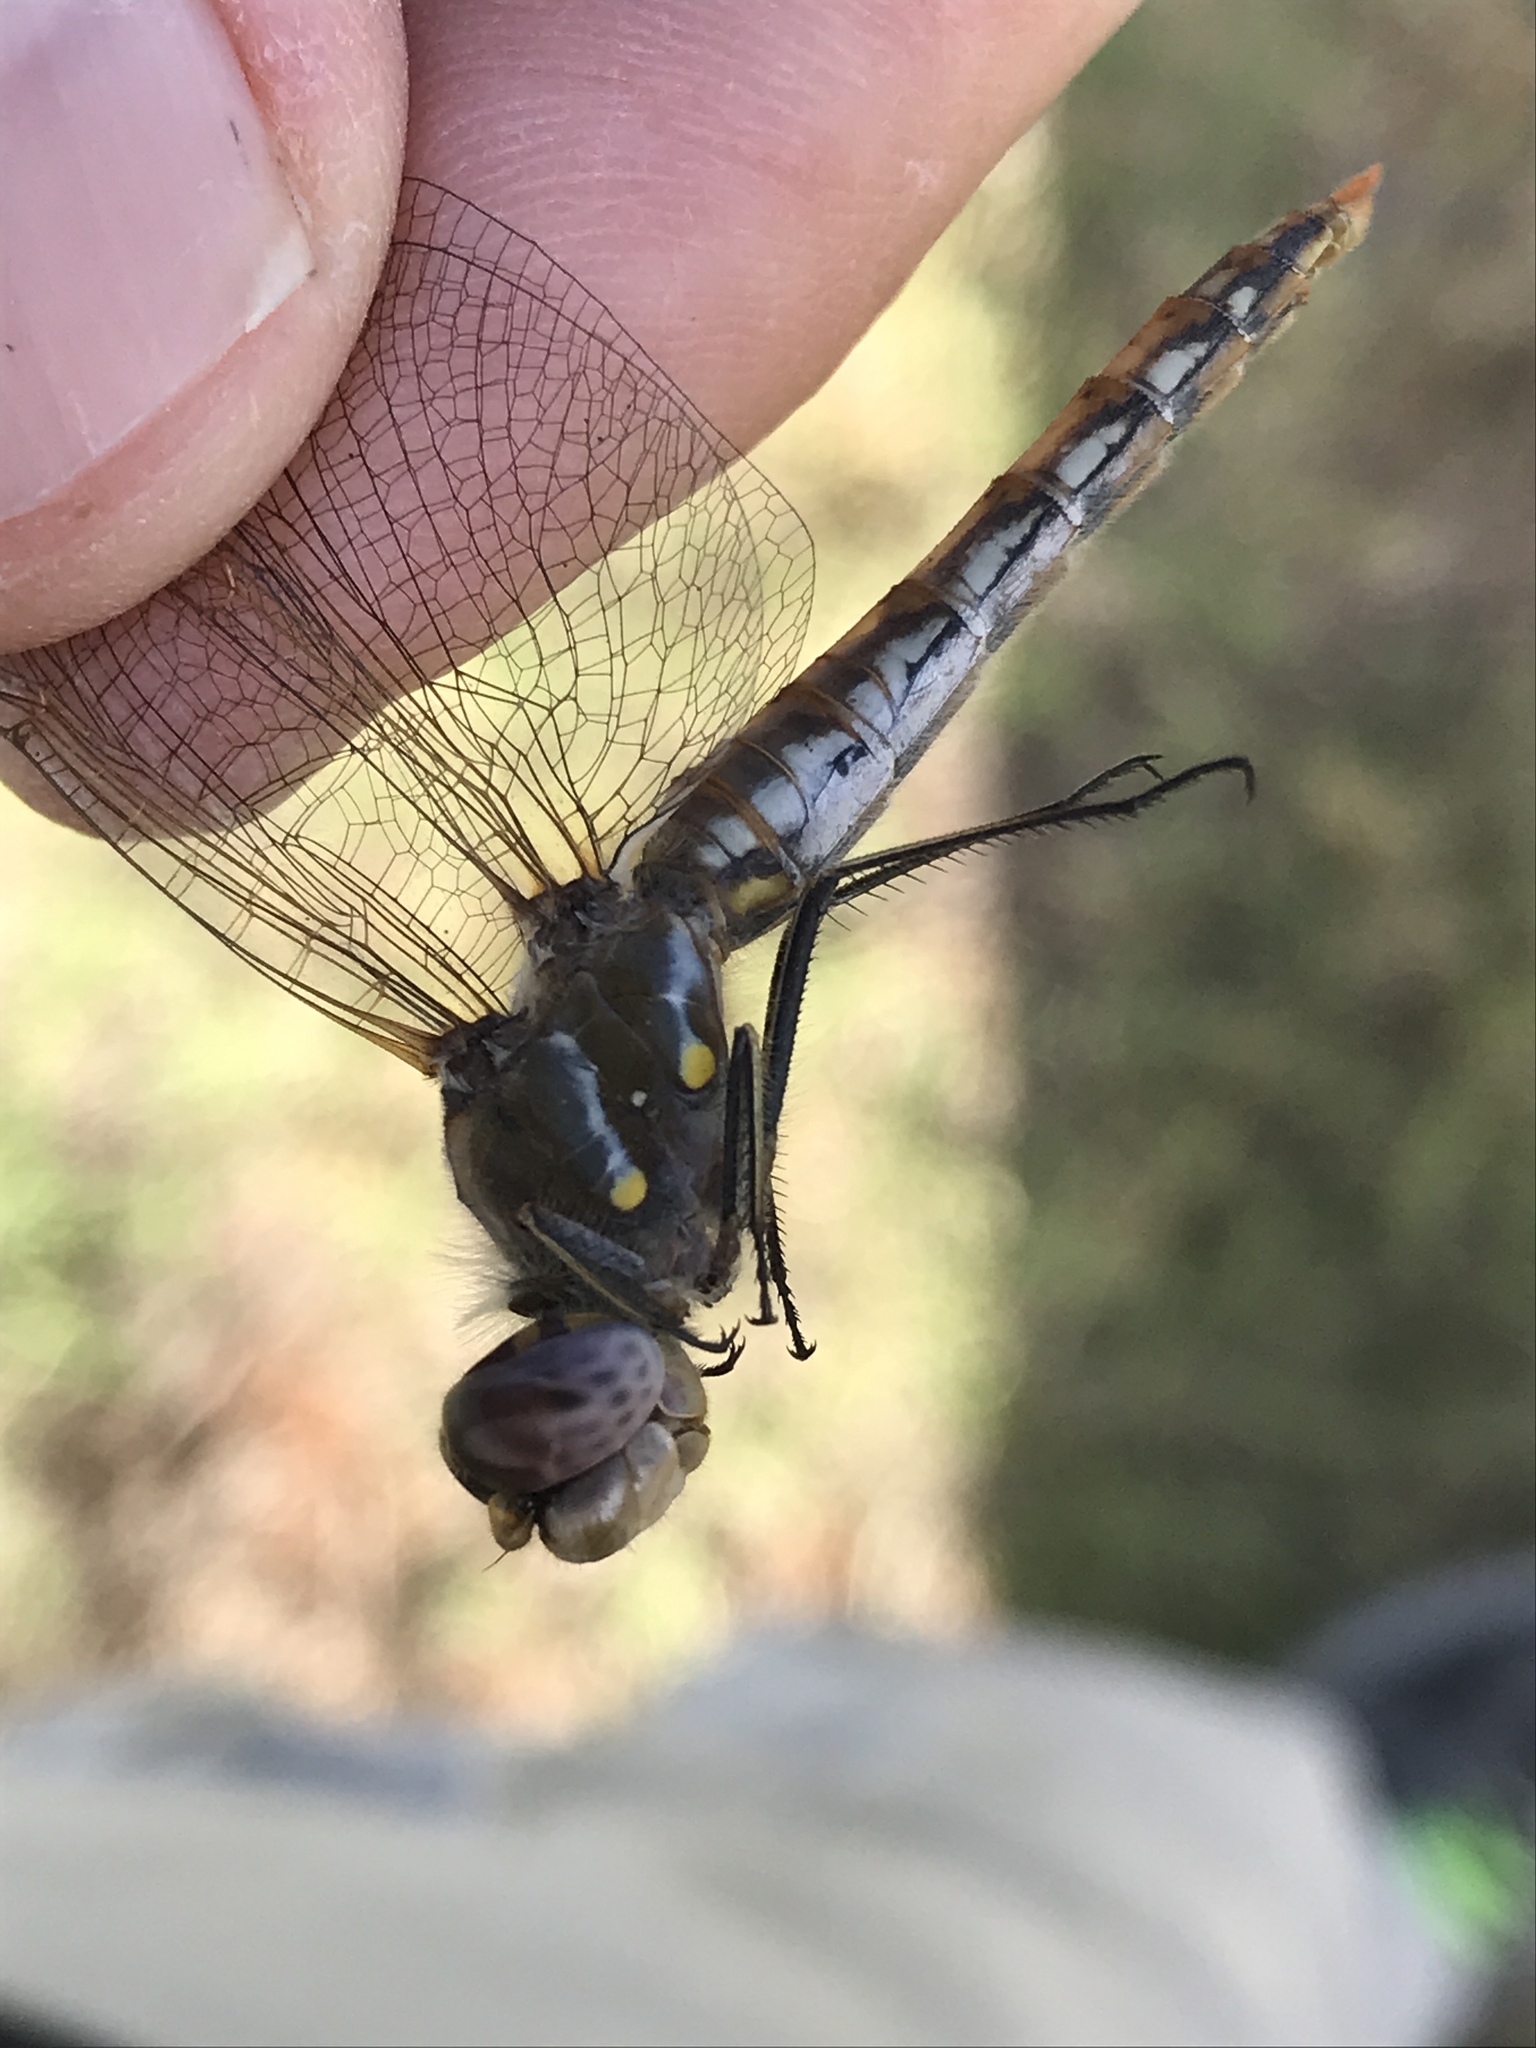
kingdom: Animalia
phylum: Arthropoda
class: Insecta
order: Odonata
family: Libellulidae
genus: Sympetrum
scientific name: Sympetrum corruptum
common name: Variegated meadowhawk
